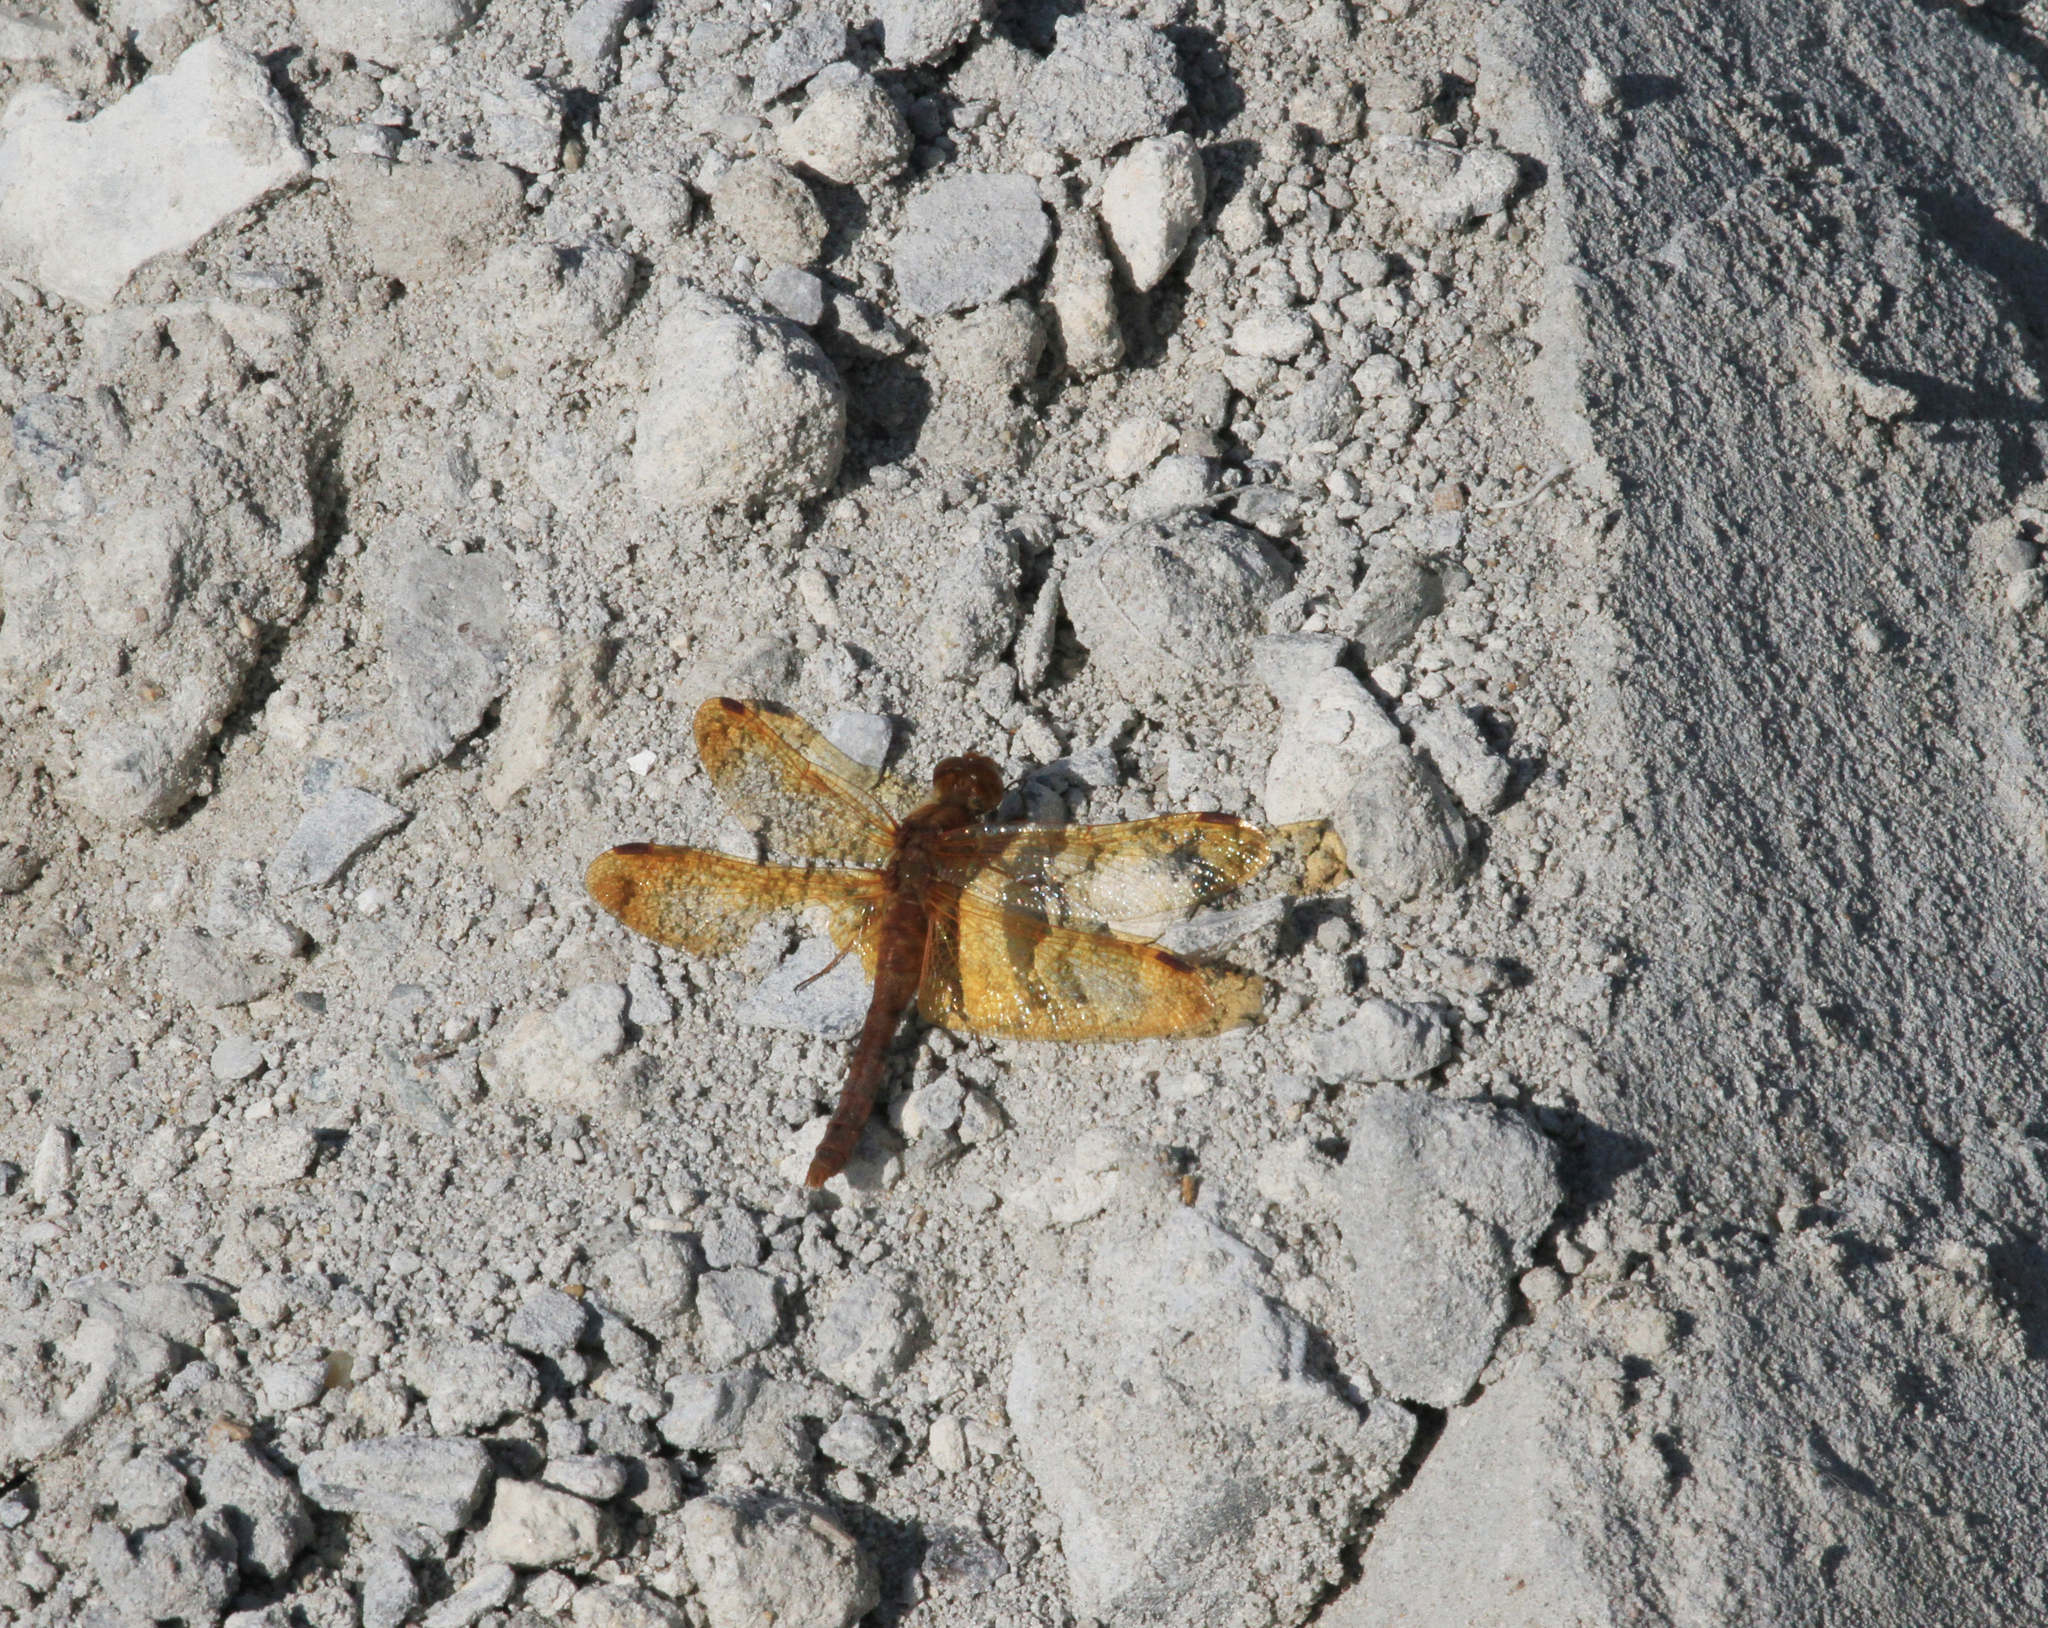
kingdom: Animalia
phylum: Arthropoda
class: Insecta
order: Odonata
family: Libellulidae
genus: Sympetrum
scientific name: Sympetrum croceolum
